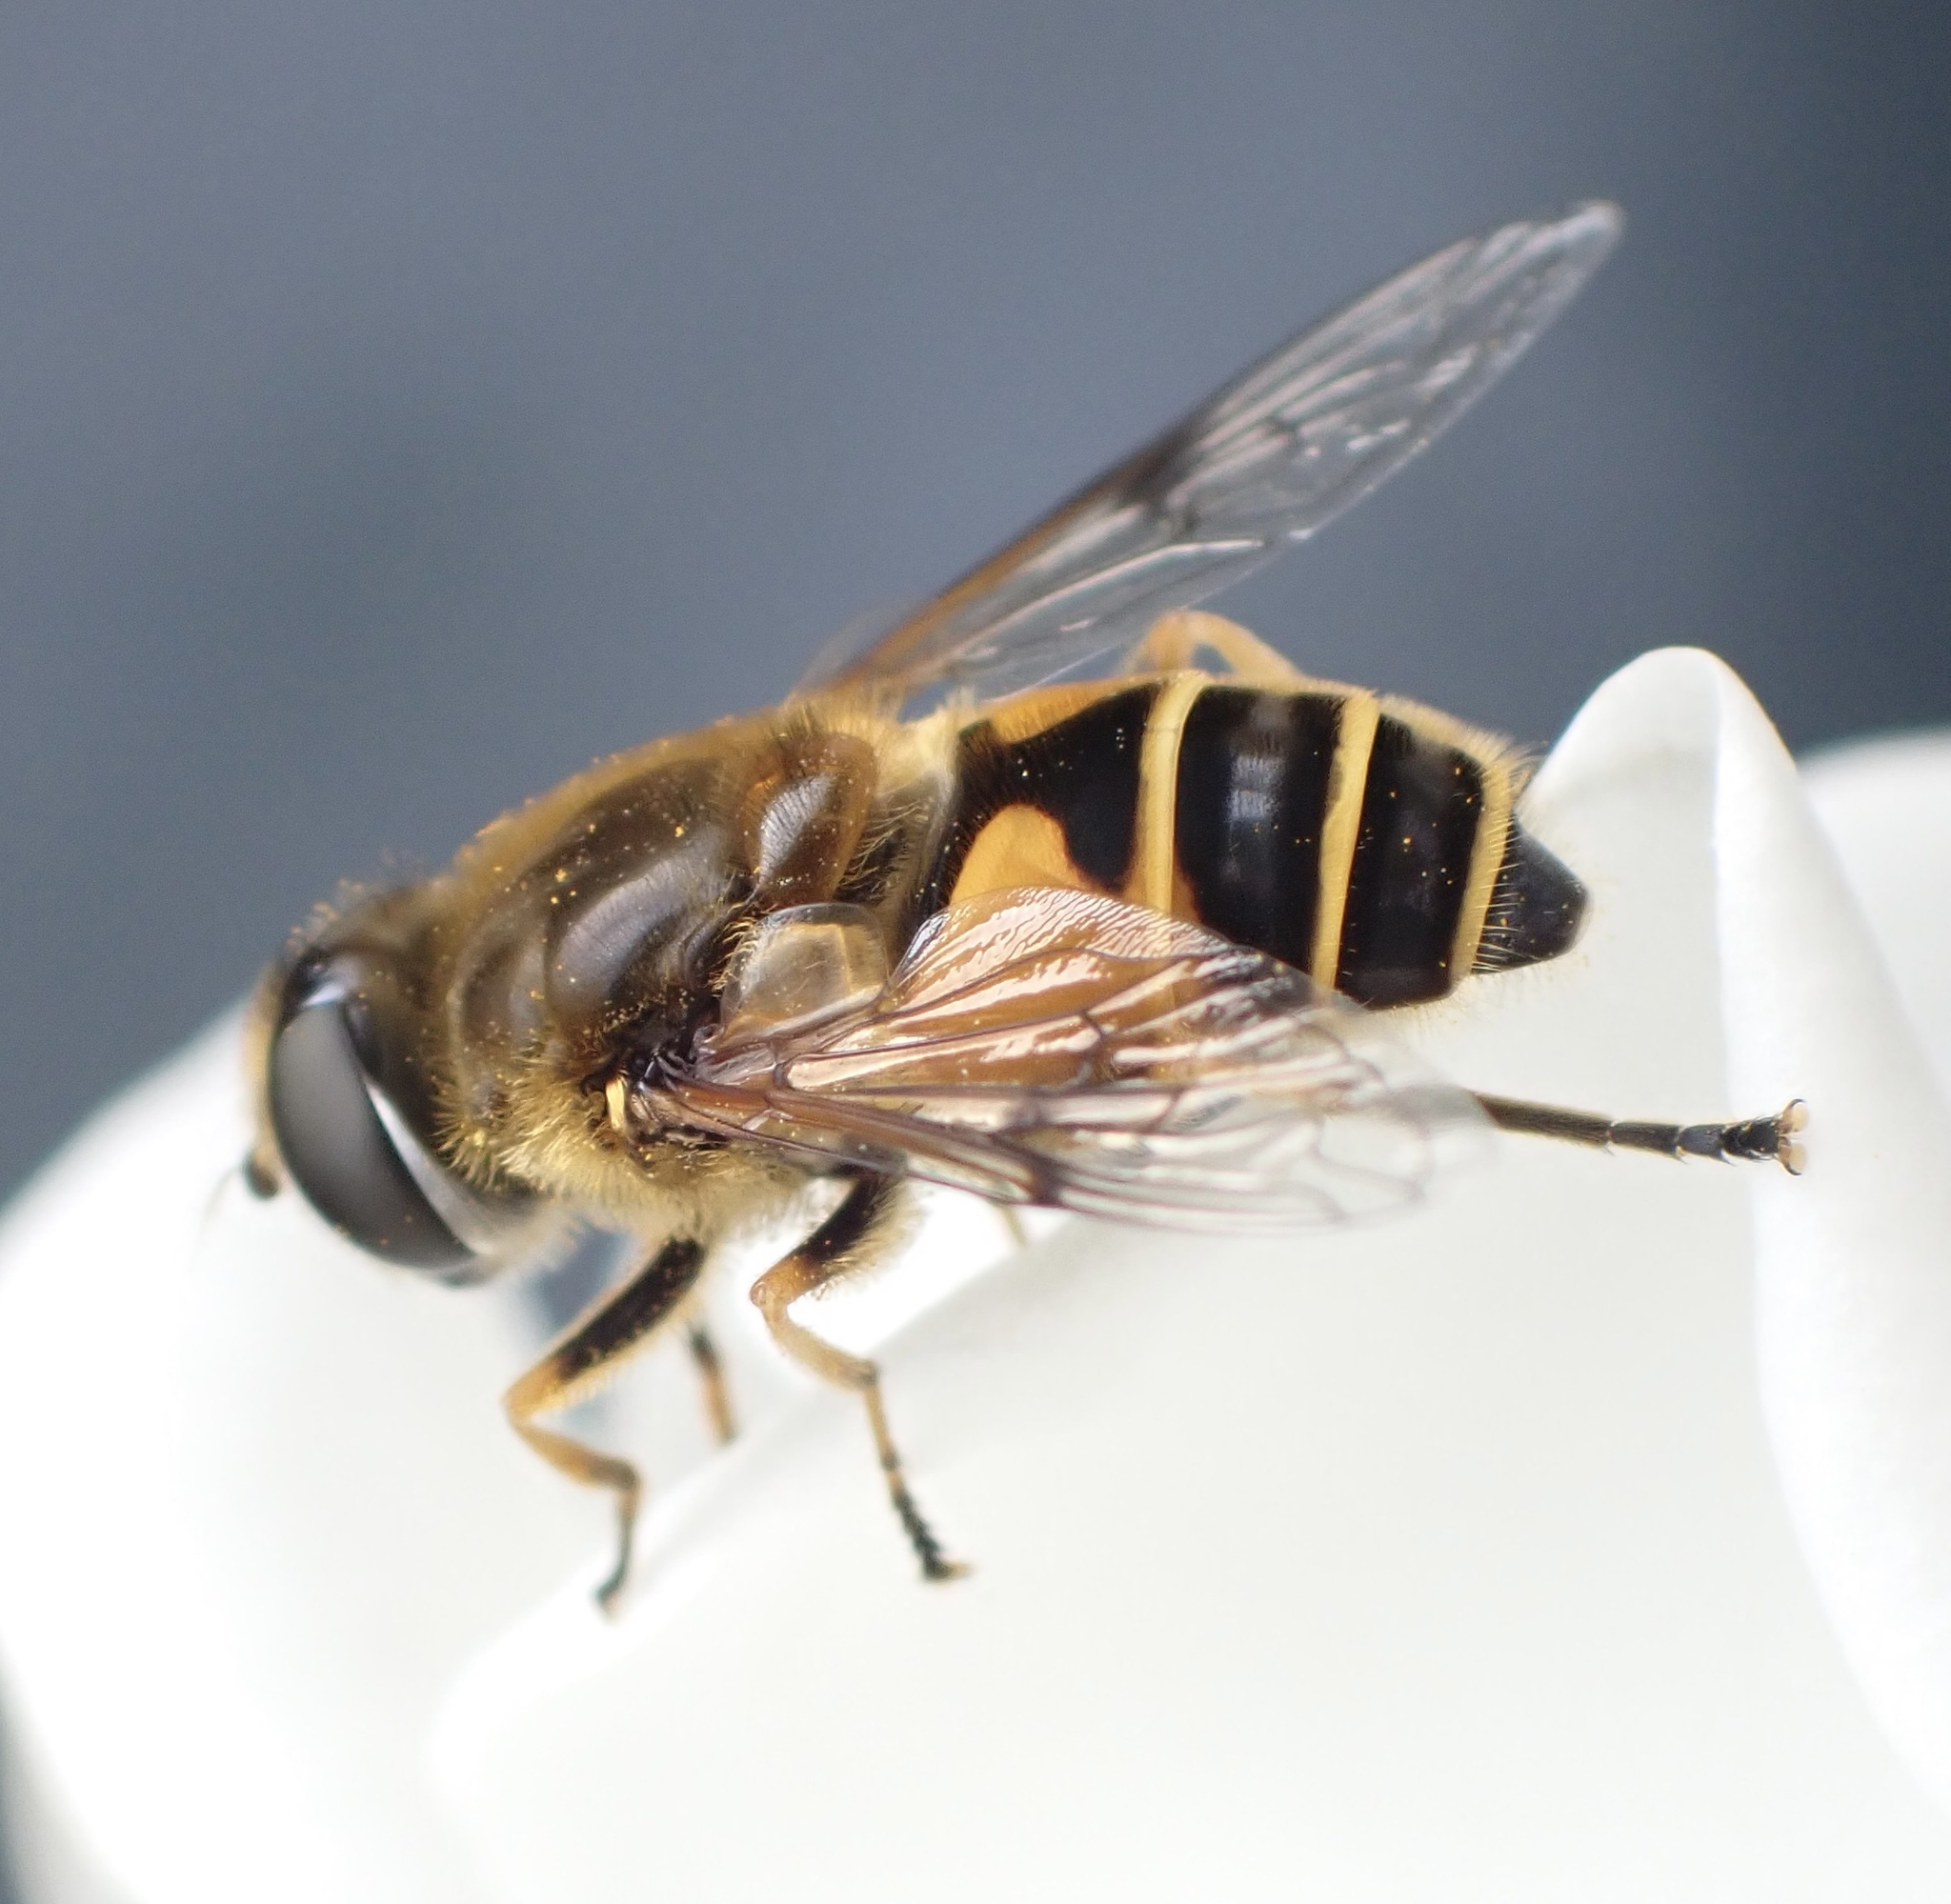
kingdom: Animalia
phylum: Arthropoda
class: Insecta
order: Diptera
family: Syrphidae
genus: Cheilosia
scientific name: Cheilosia morio
